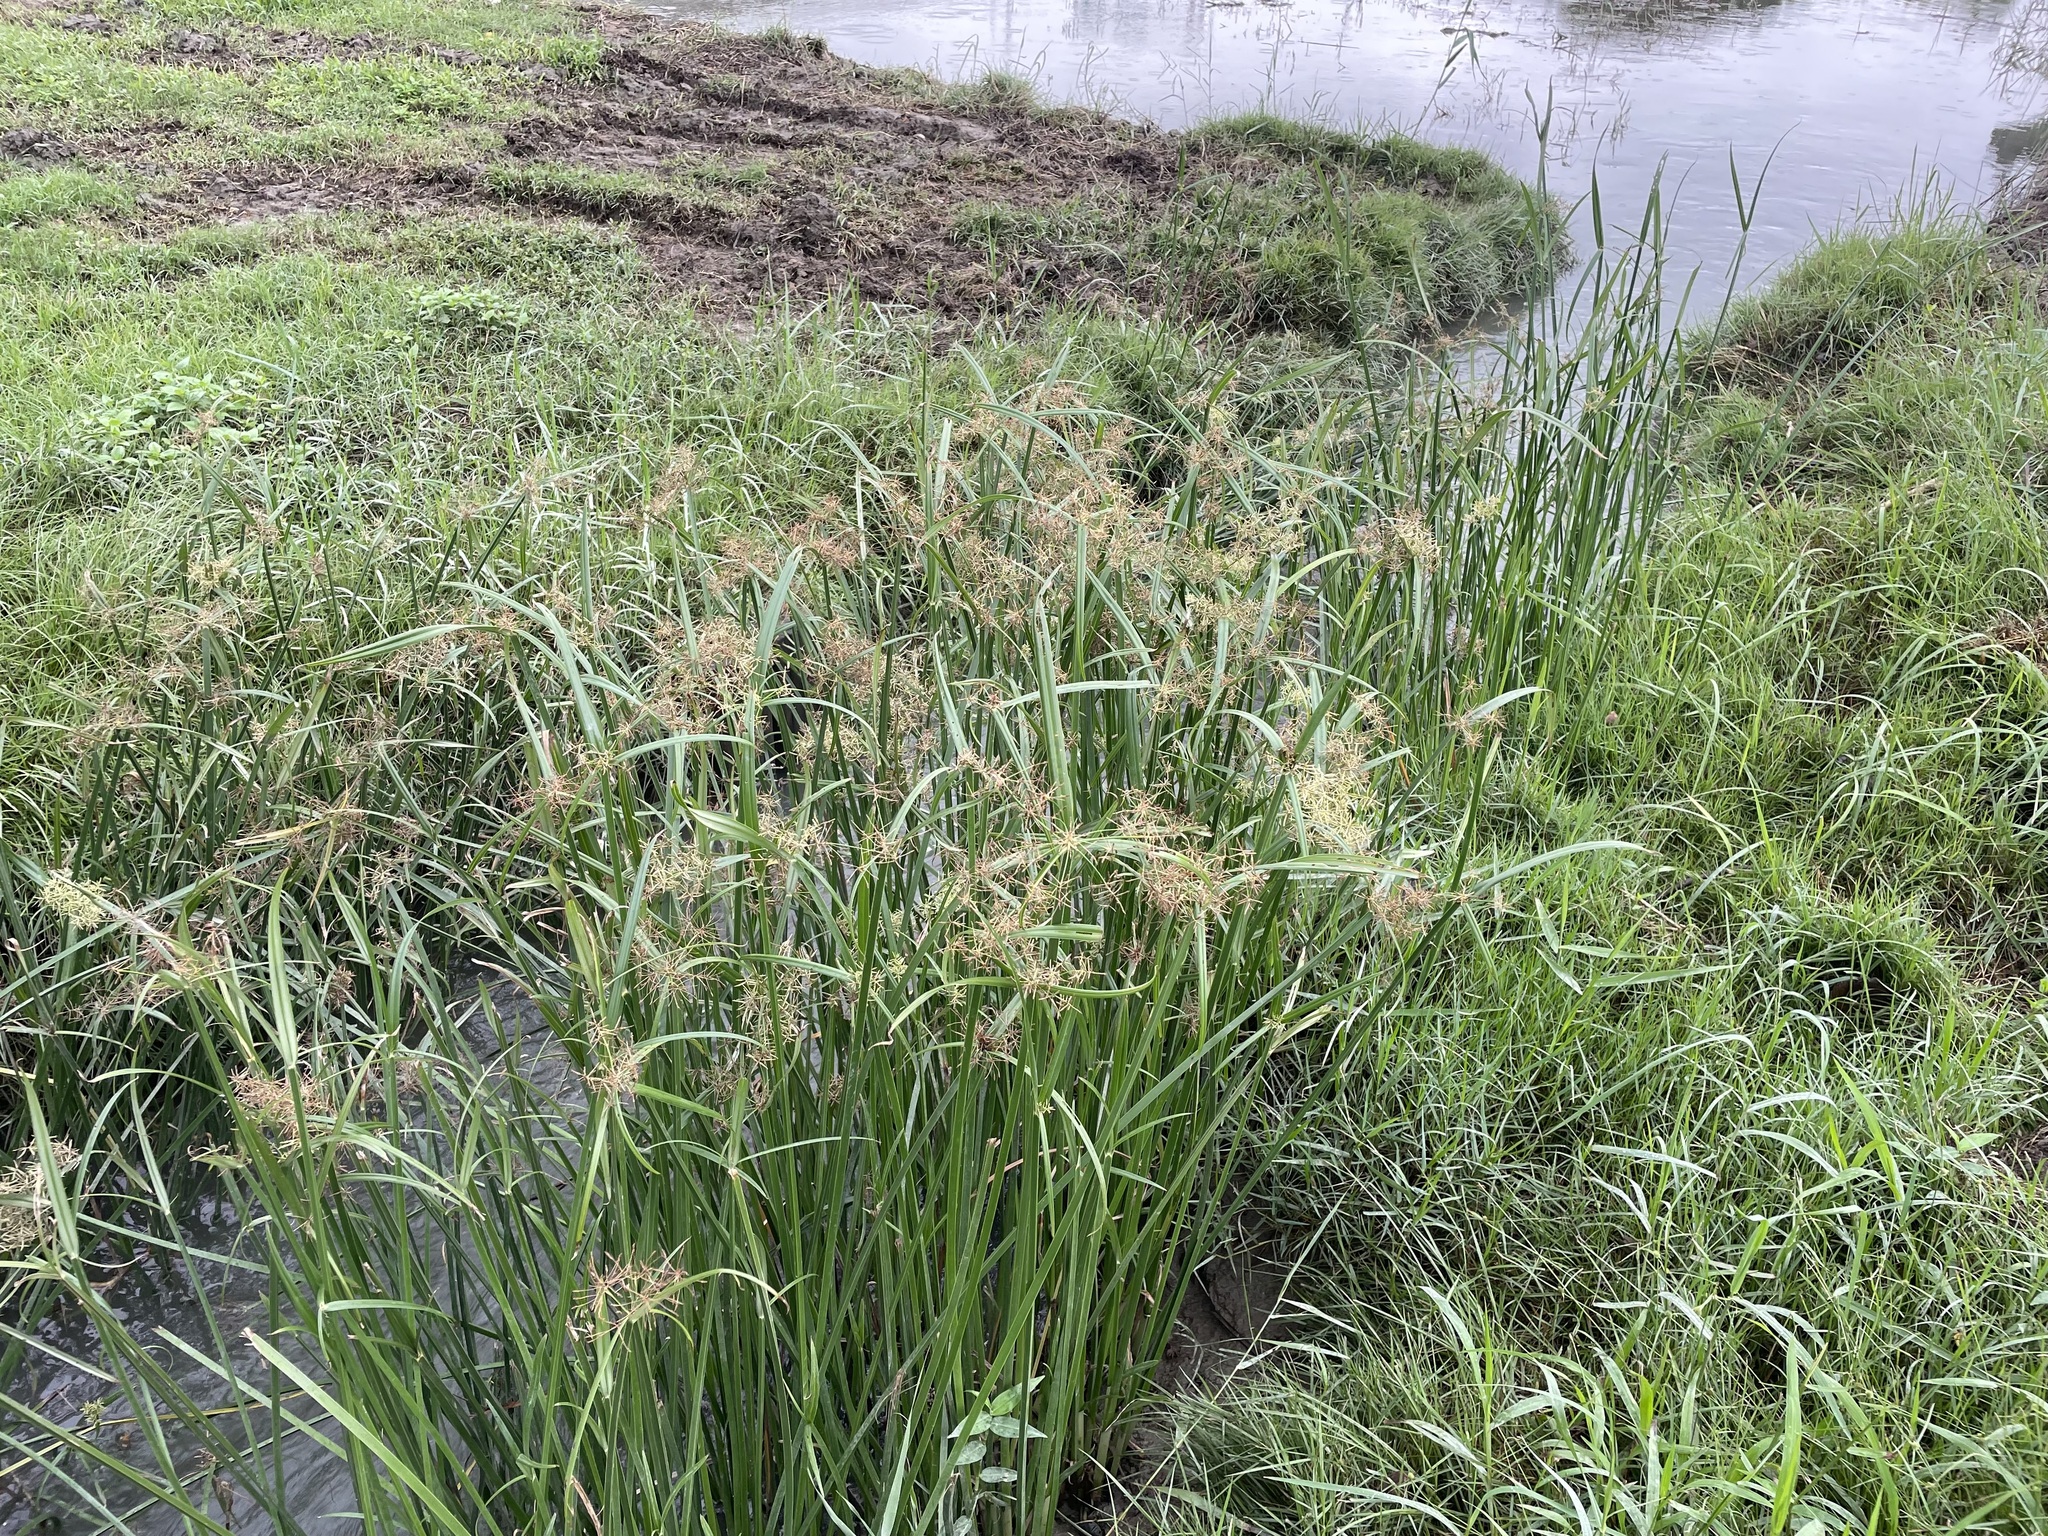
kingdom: Plantae
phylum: Tracheophyta
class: Liliopsida
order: Poales
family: Cyperaceae
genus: Cyperus
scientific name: Cyperus malaccensis
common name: Shichito matgrass
